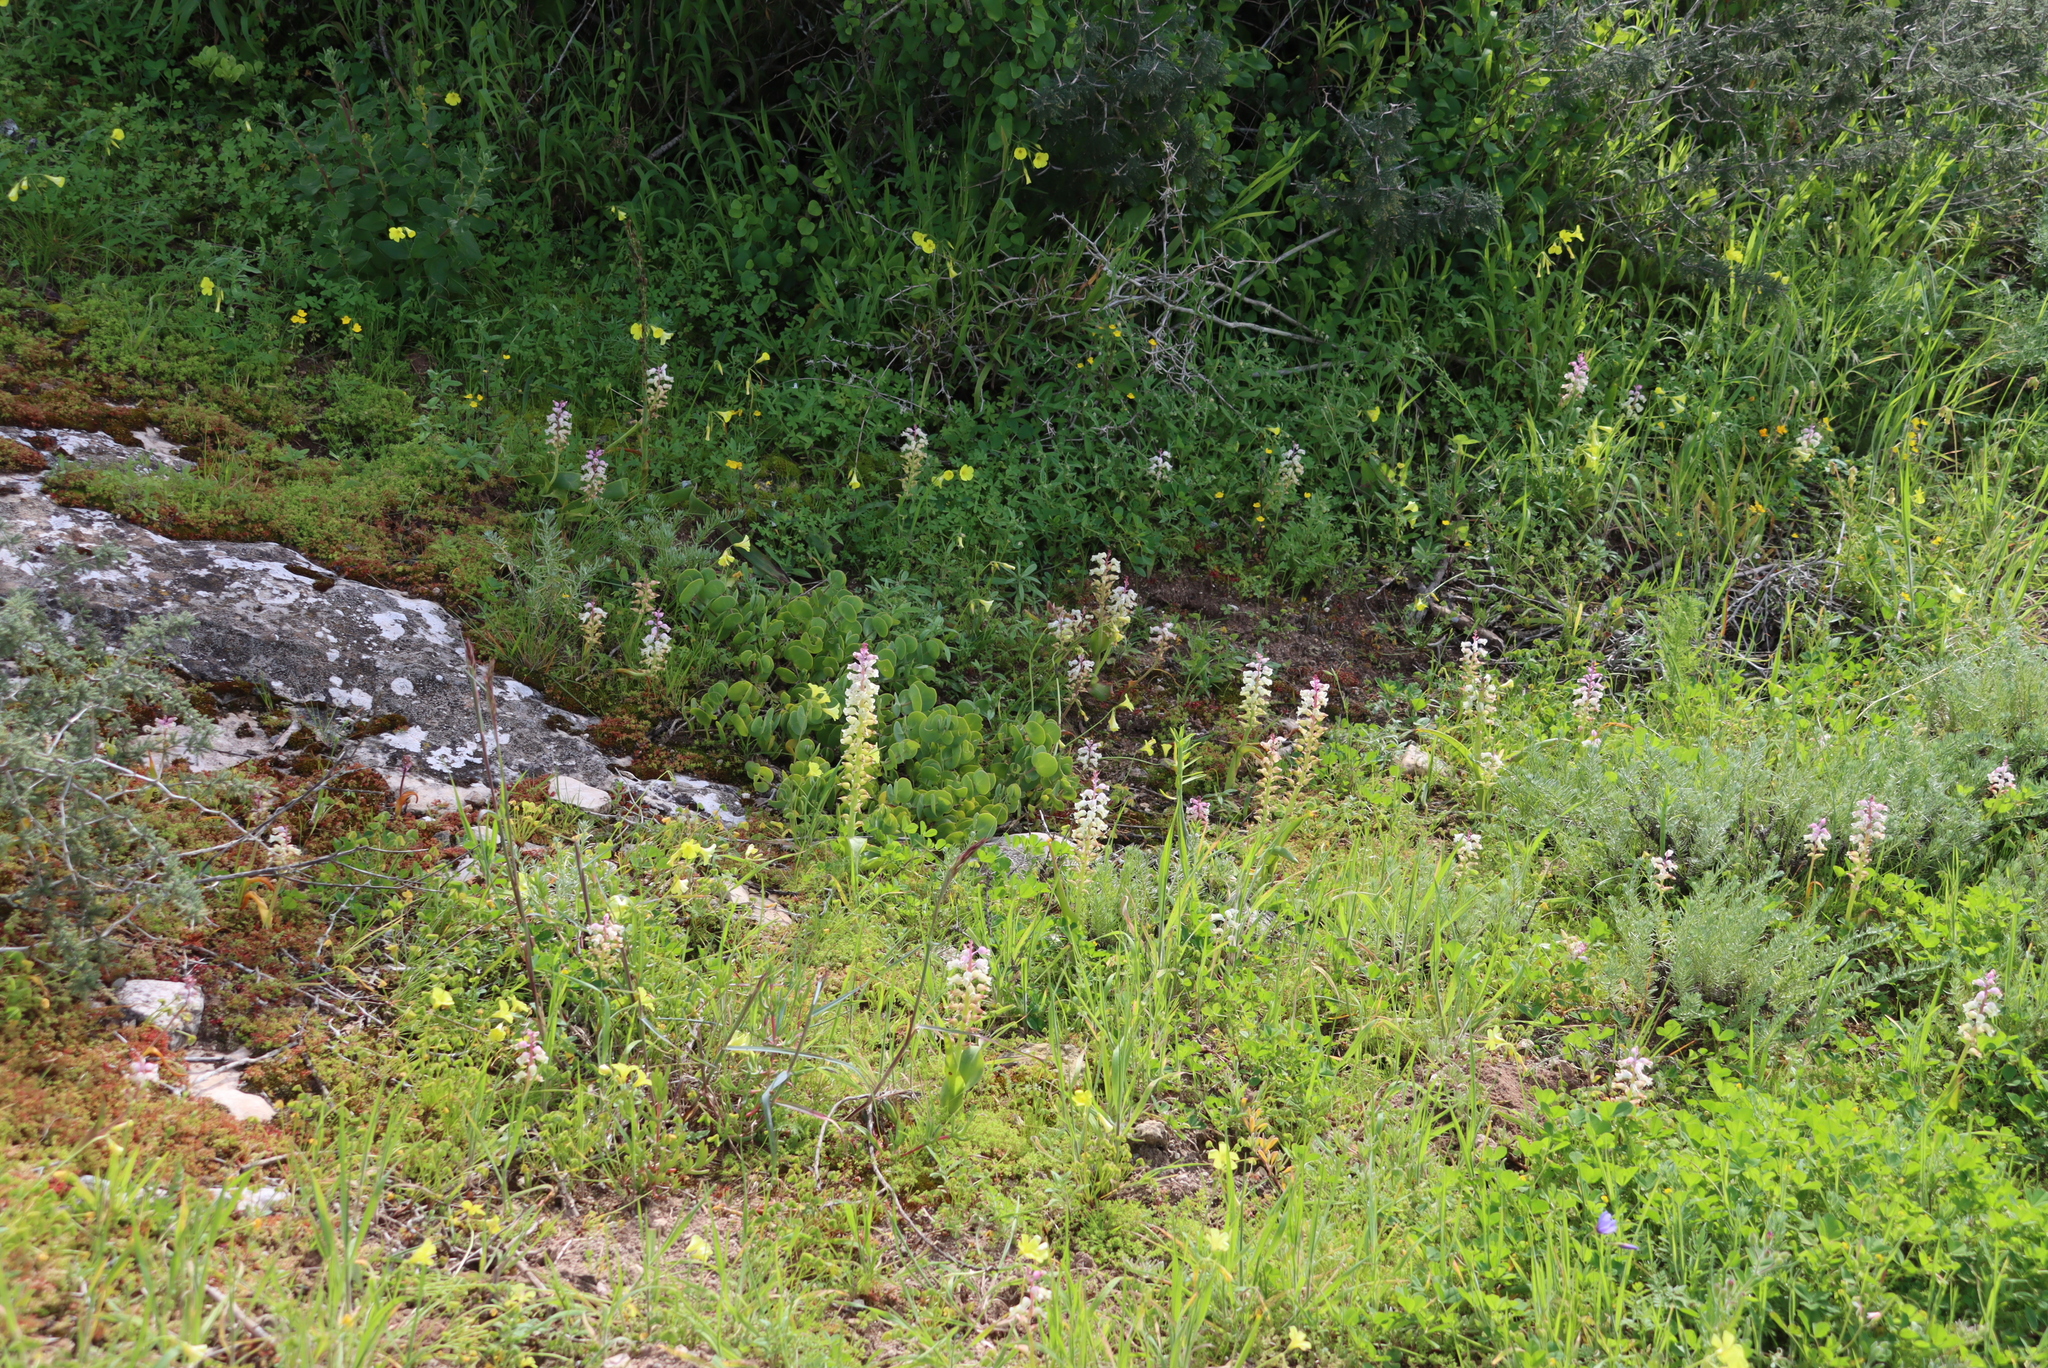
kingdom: Plantae
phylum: Tracheophyta
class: Liliopsida
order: Asparagales
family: Asparagaceae
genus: Lachenalia
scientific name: Lachenalia pallida
